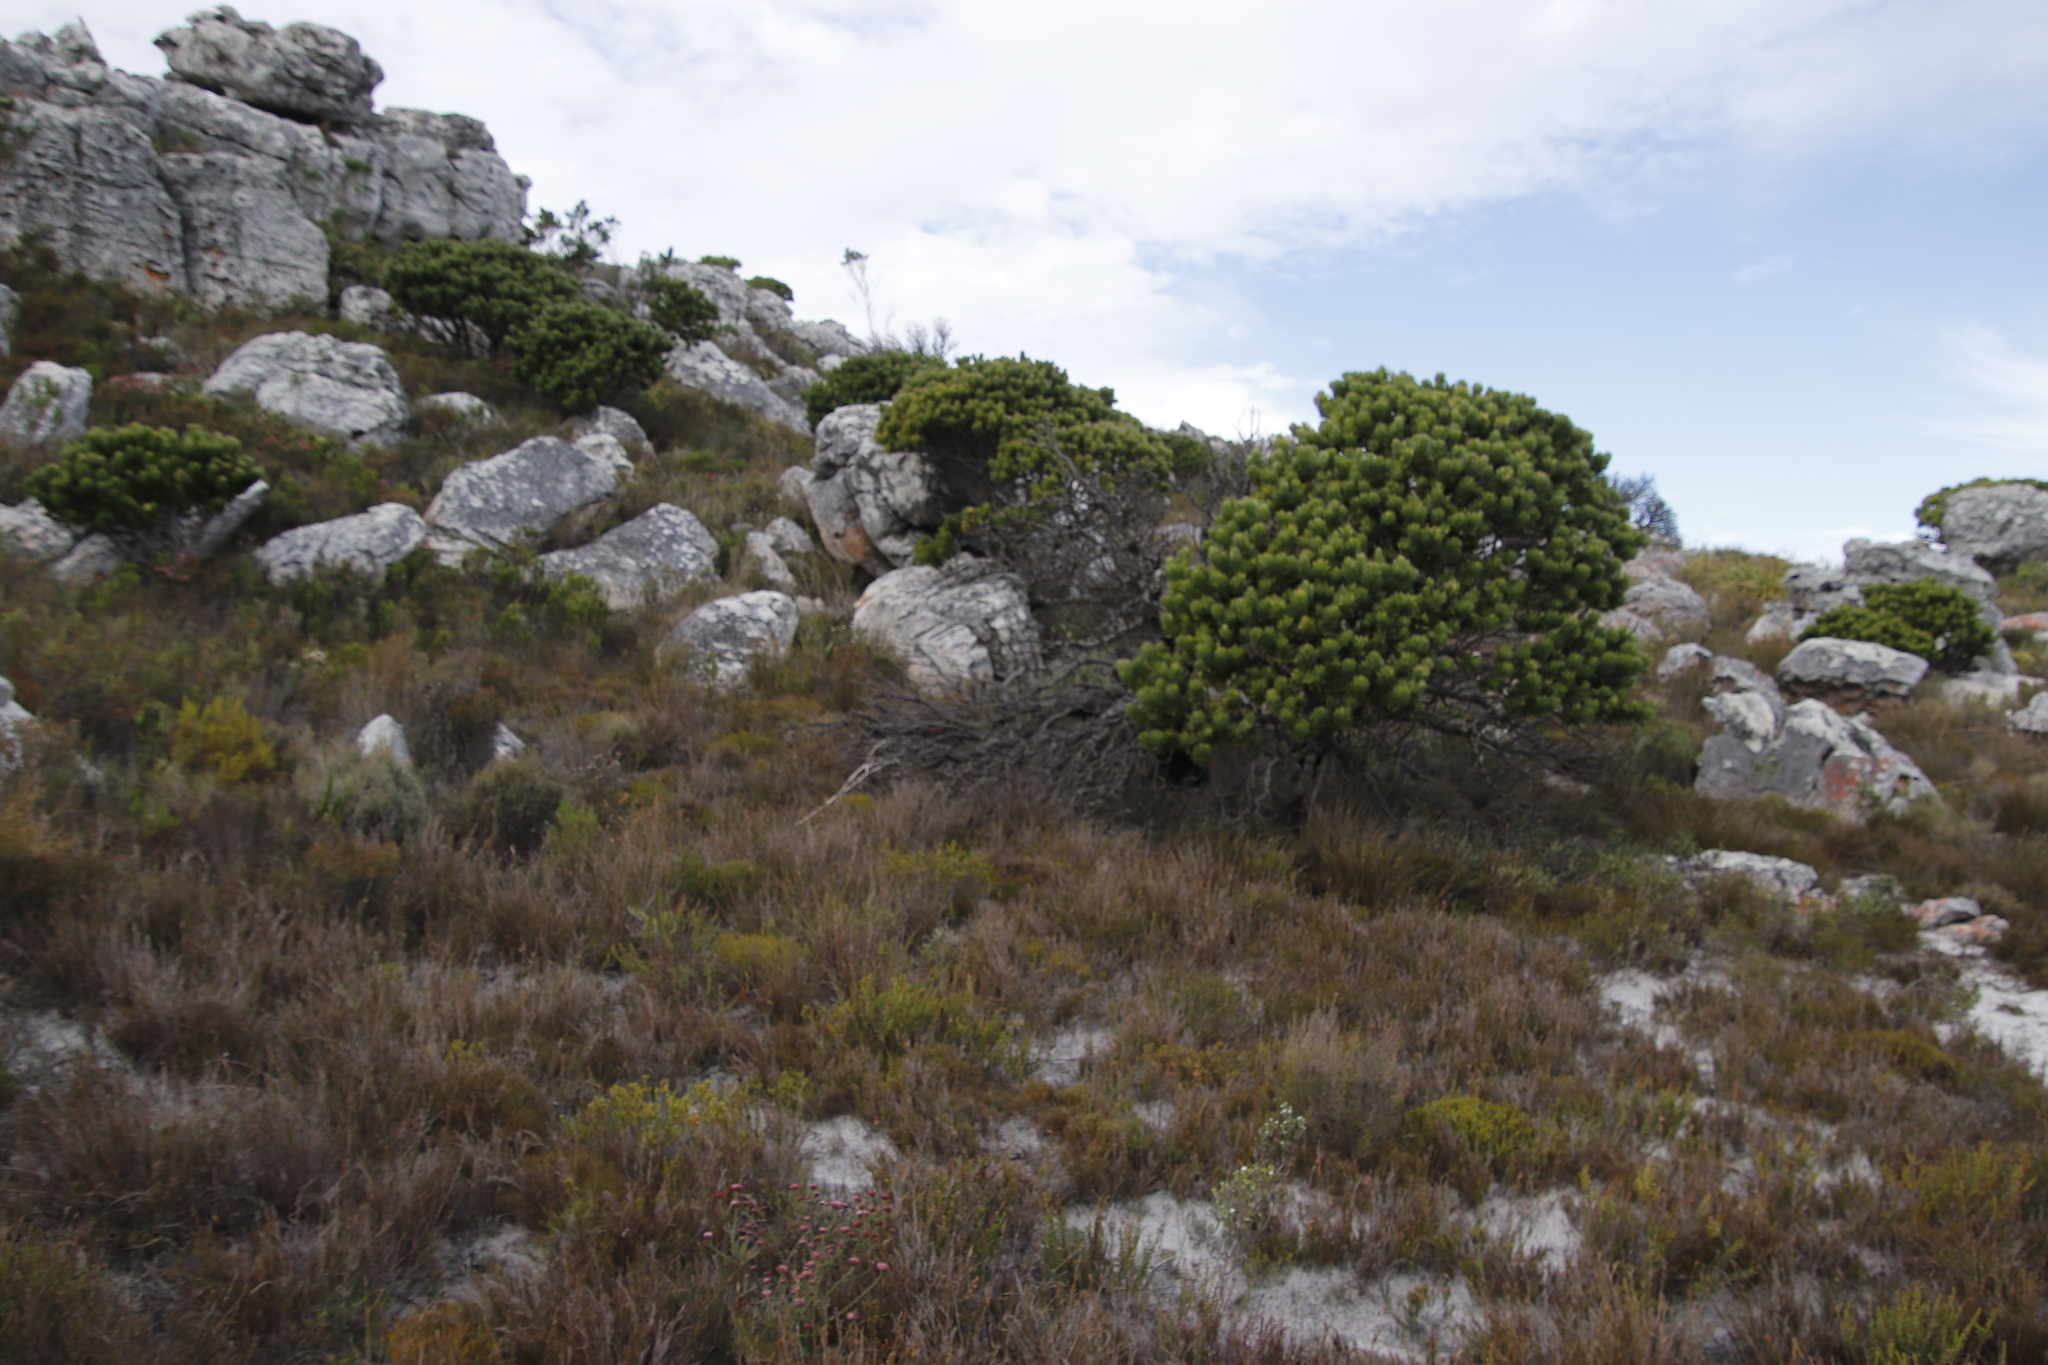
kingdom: Plantae
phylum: Tracheophyta
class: Magnoliopsida
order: Proteales
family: Proteaceae
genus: Mimetes
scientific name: Mimetes fimbriifolius
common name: Fringed bottlebrush
